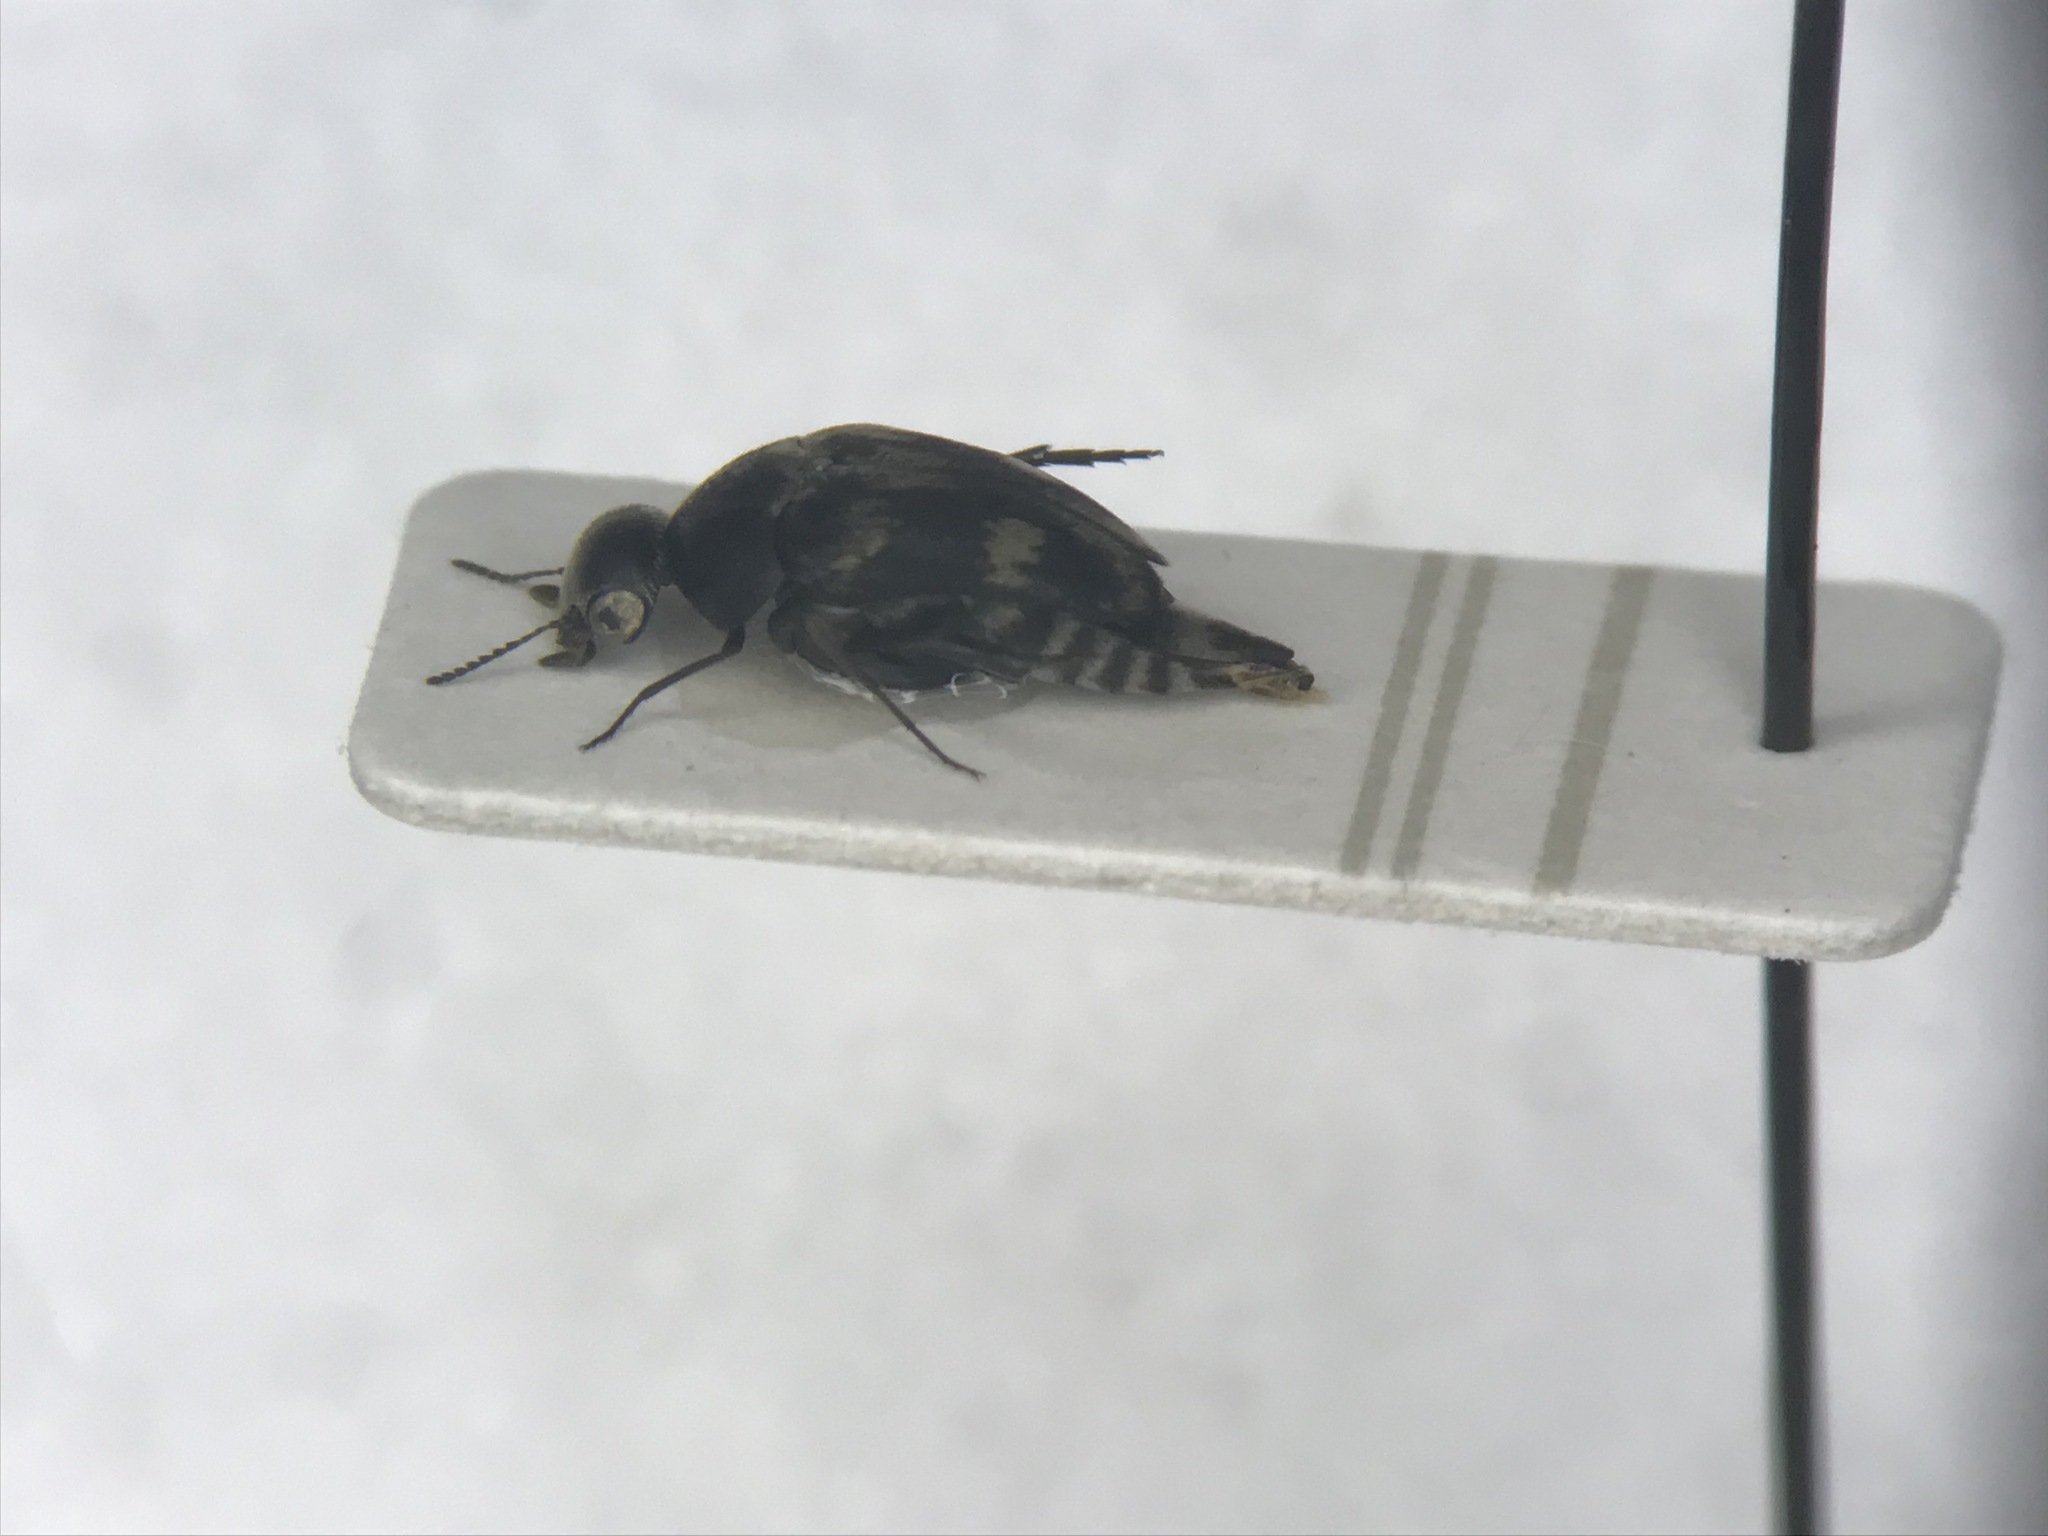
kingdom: Animalia
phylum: Arthropoda
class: Insecta
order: Coleoptera
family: Mordellidae
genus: Tomoxia
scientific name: Tomoxia inclusa
